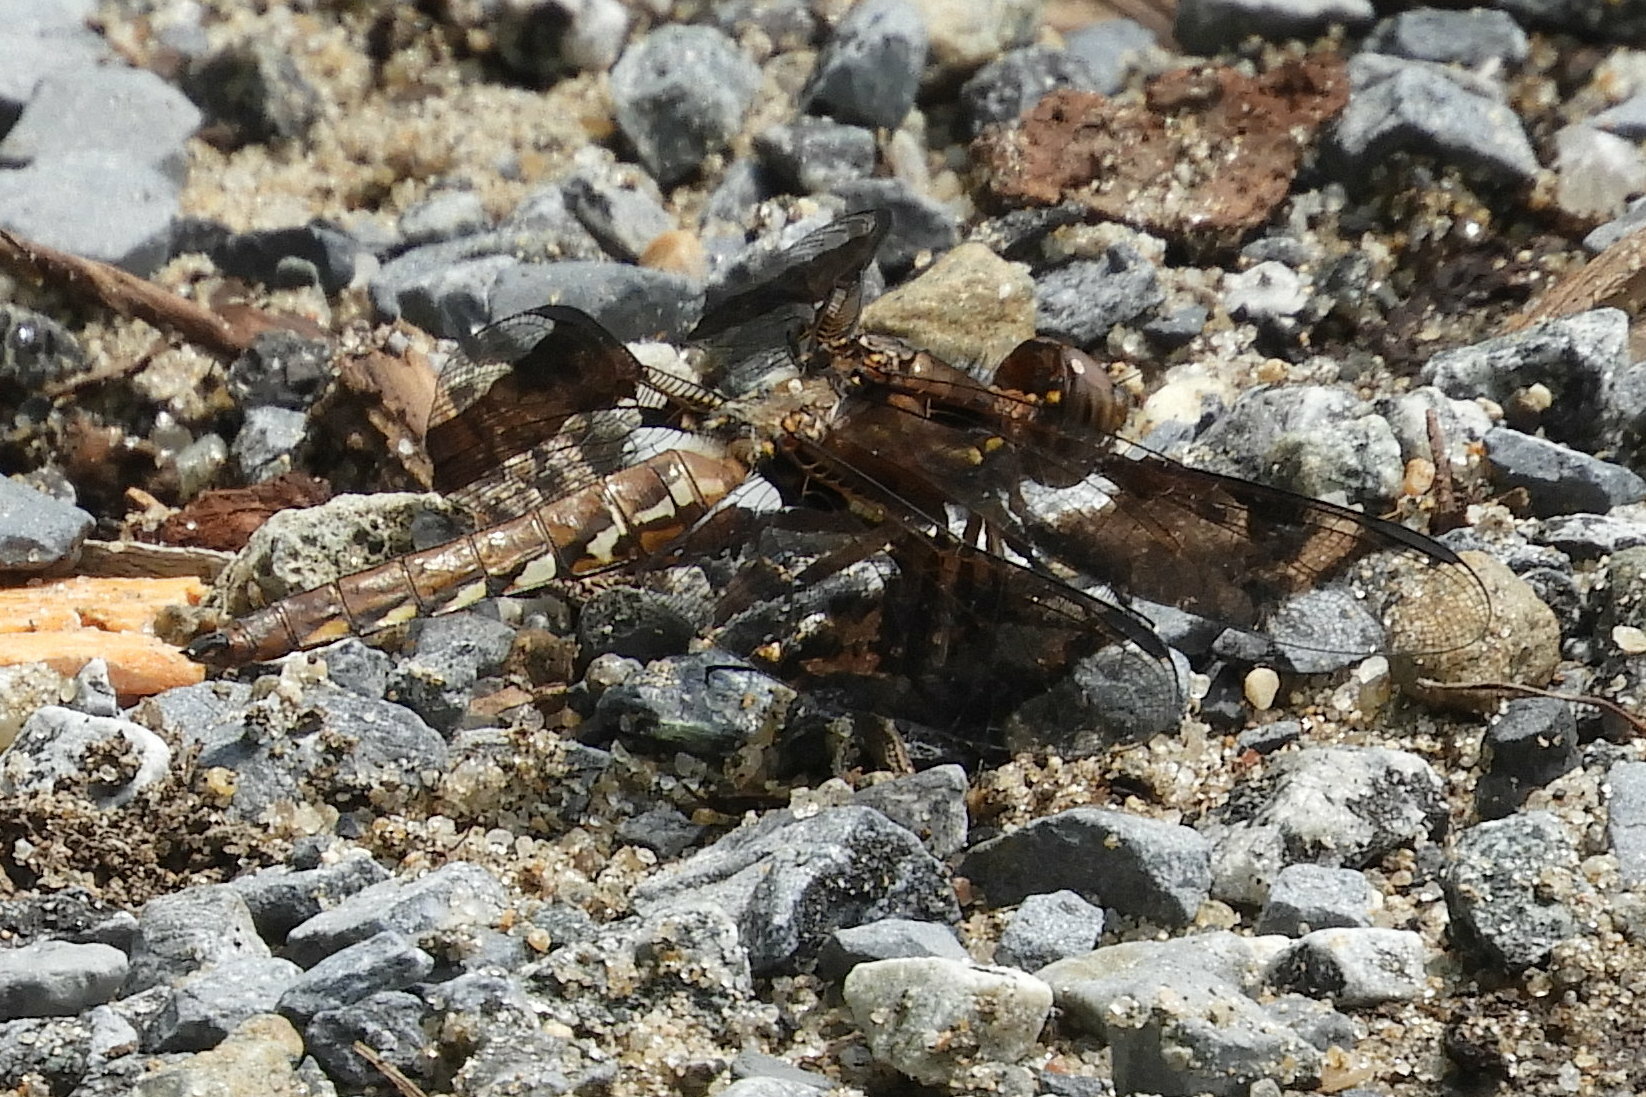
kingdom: Animalia
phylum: Arthropoda
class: Insecta
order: Odonata
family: Libellulidae
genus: Plathemis
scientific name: Plathemis lydia
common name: Common whitetail
